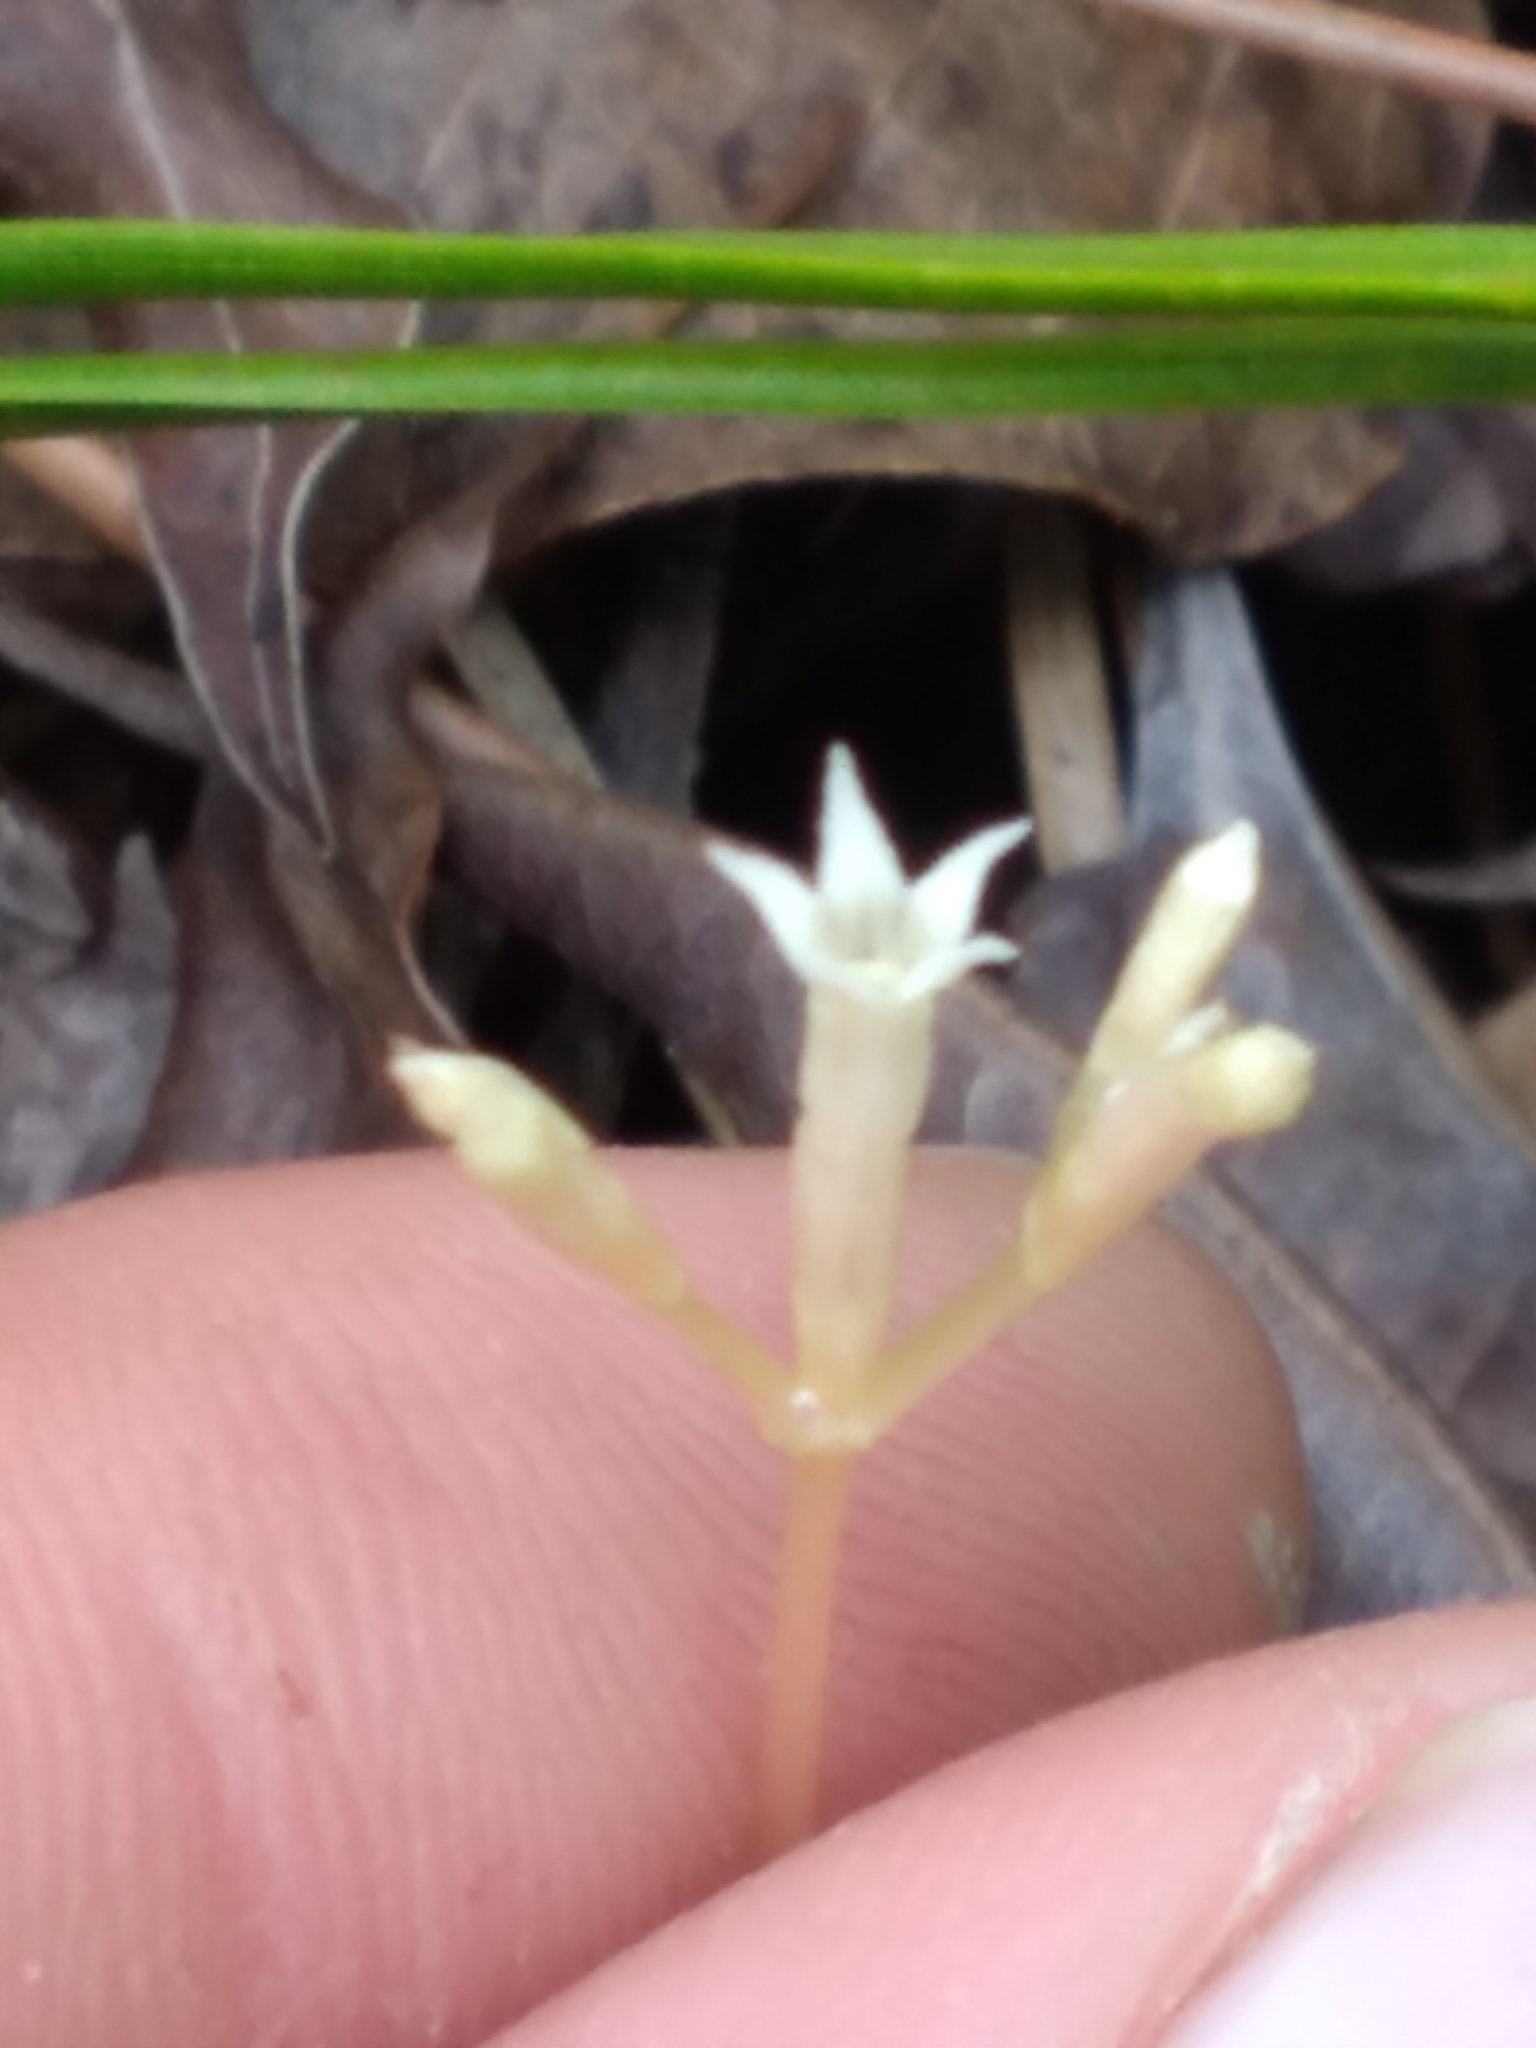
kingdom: Plantae
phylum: Tracheophyta
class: Magnoliopsida
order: Gentianales
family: Gentianaceae
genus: Voyria
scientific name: Voyria parasitica
